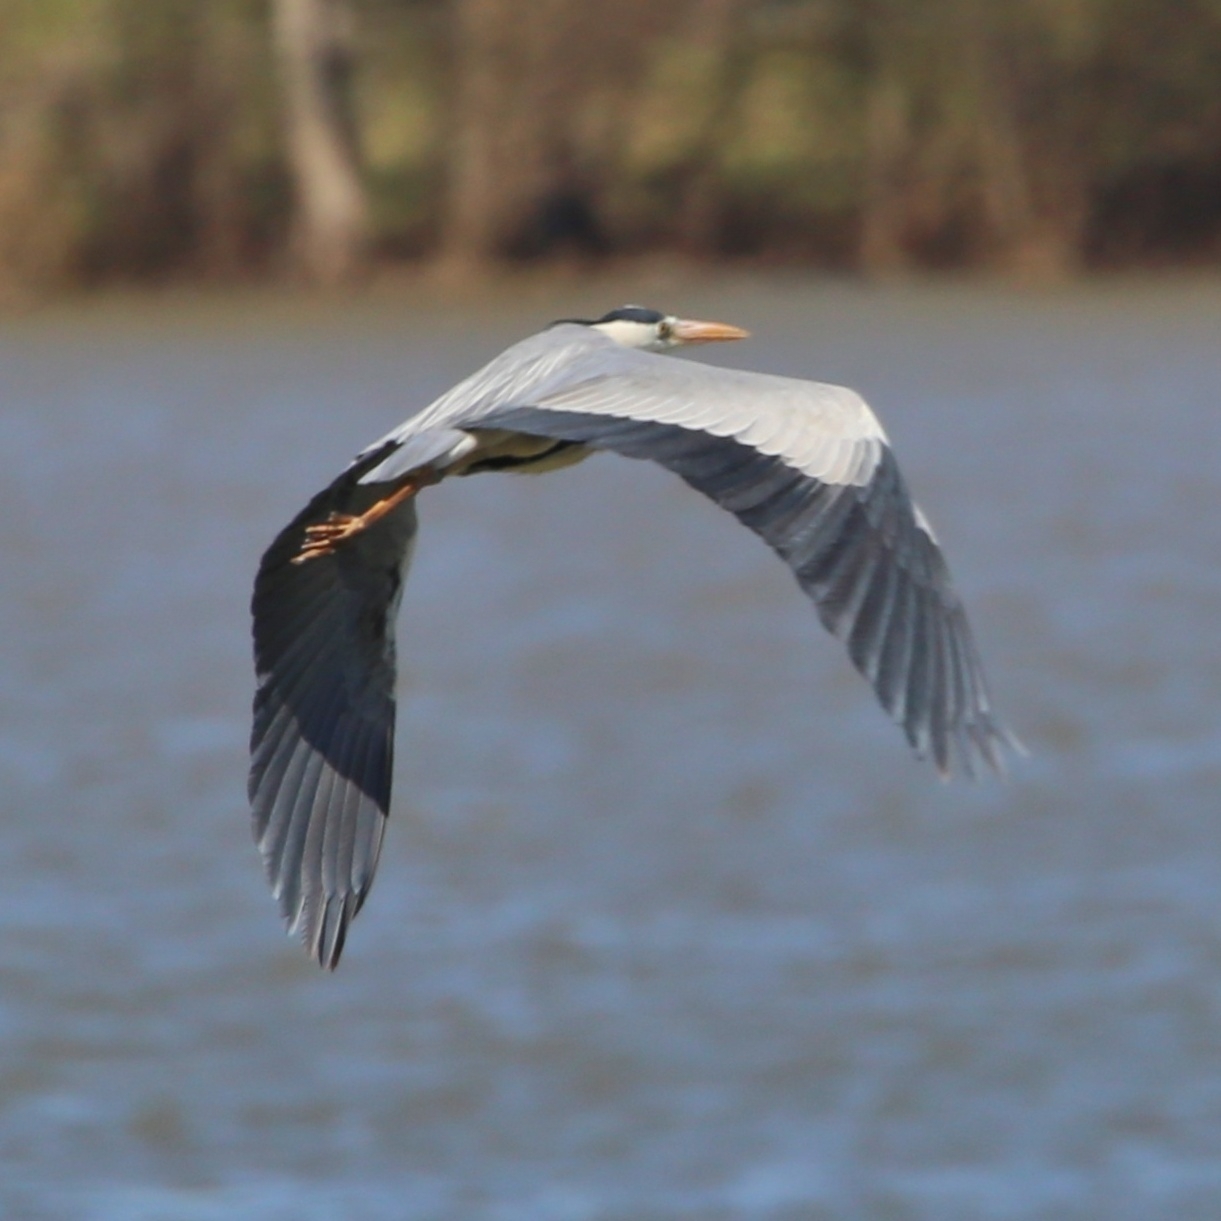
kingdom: Animalia
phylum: Chordata
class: Aves
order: Pelecaniformes
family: Ardeidae
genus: Ardea
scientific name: Ardea cinerea
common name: Grey heron
